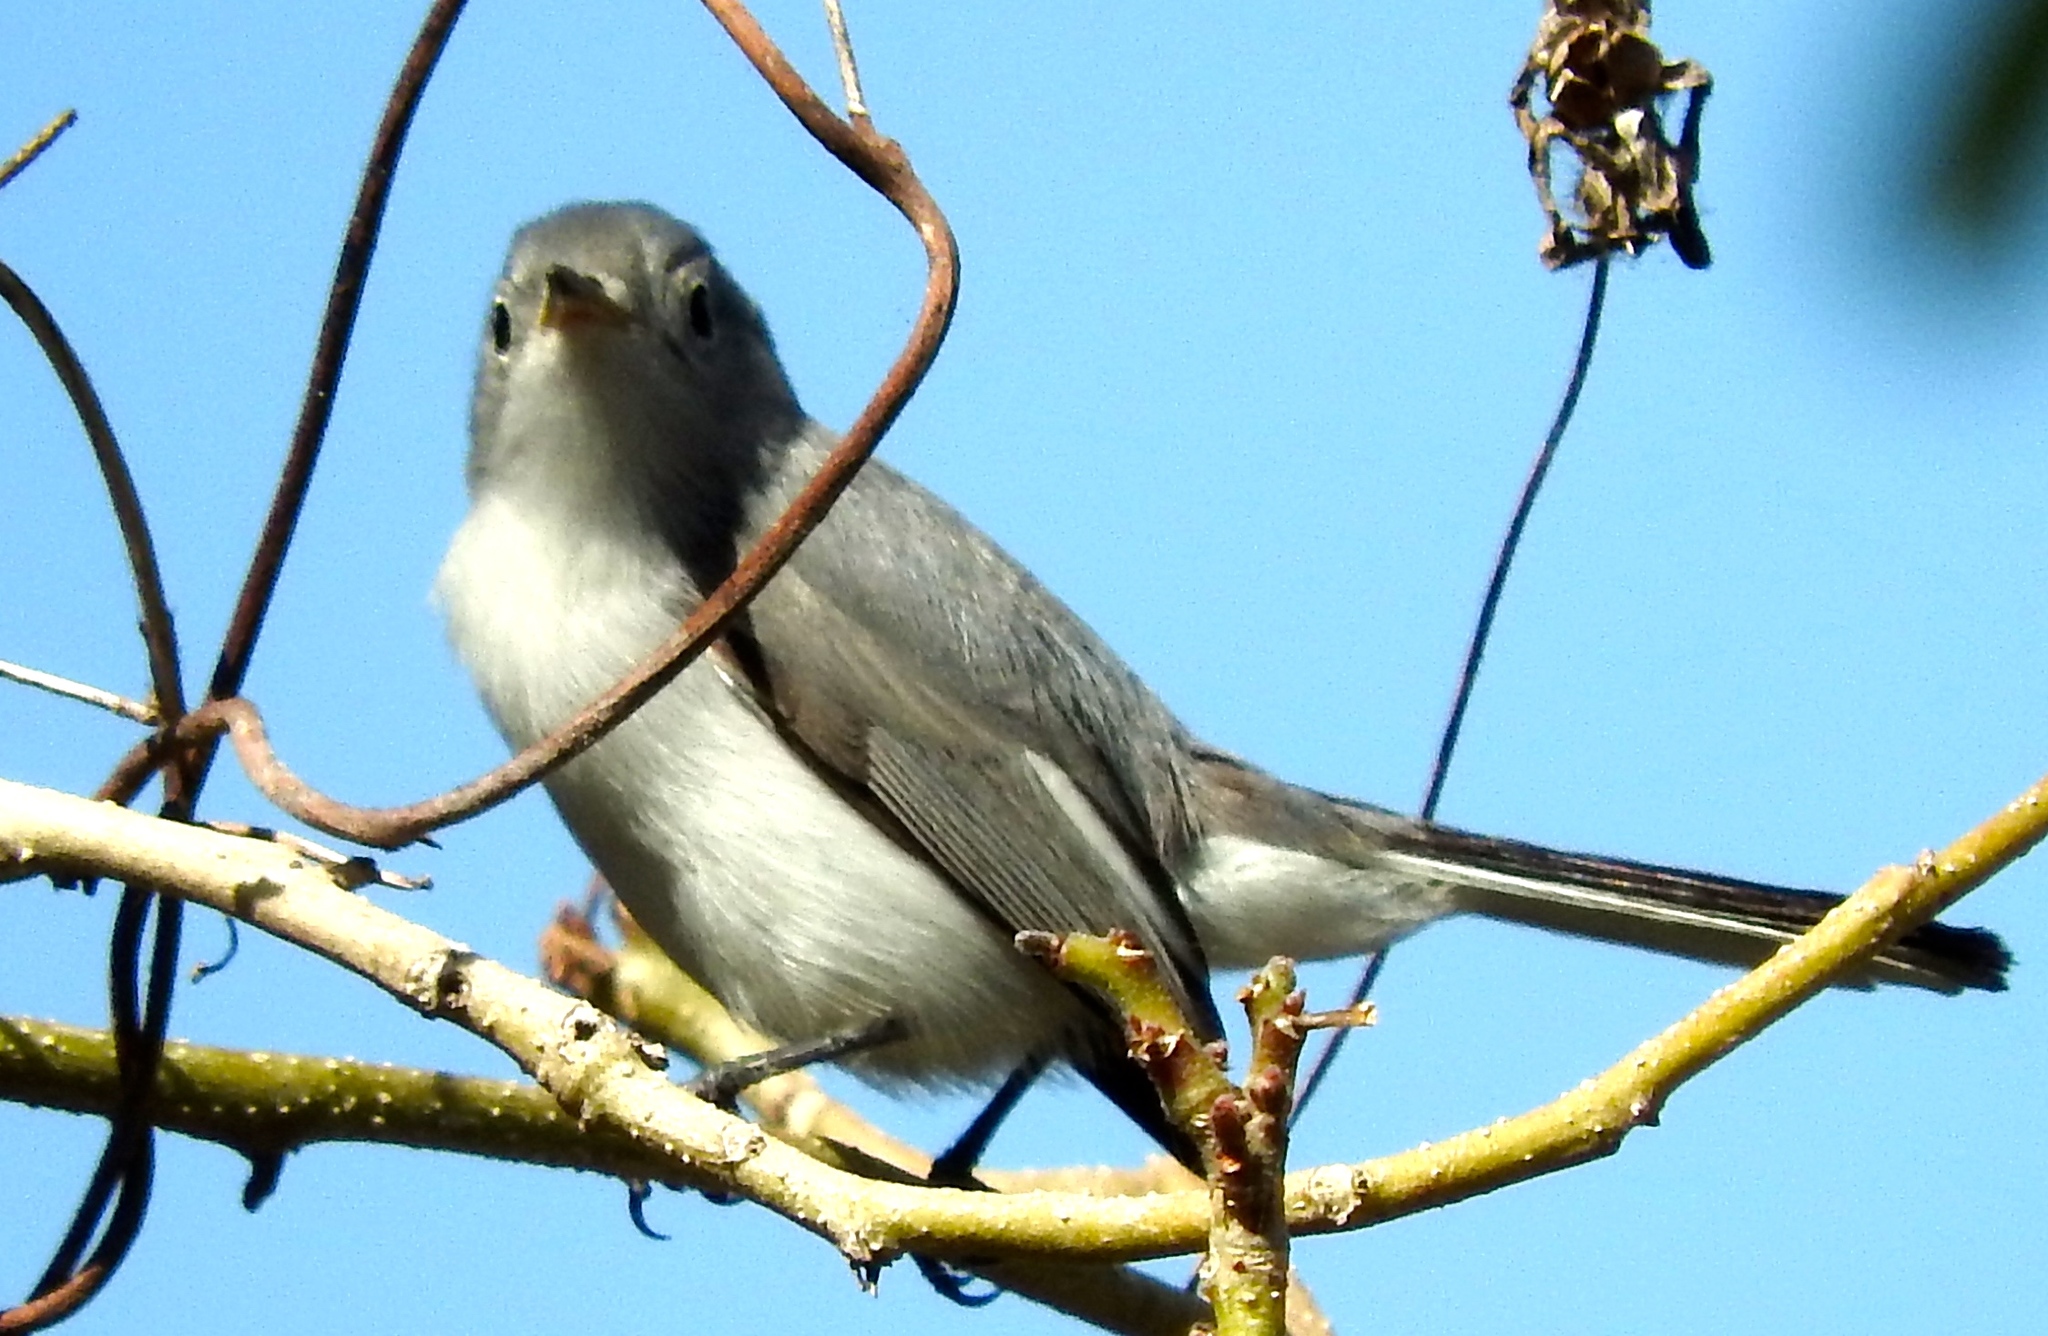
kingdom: Animalia
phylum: Chordata
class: Aves
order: Passeriformes
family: Polioptilidae
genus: Polioptila
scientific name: Polioptila caerulea
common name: Blue-gray gnatcatcher
